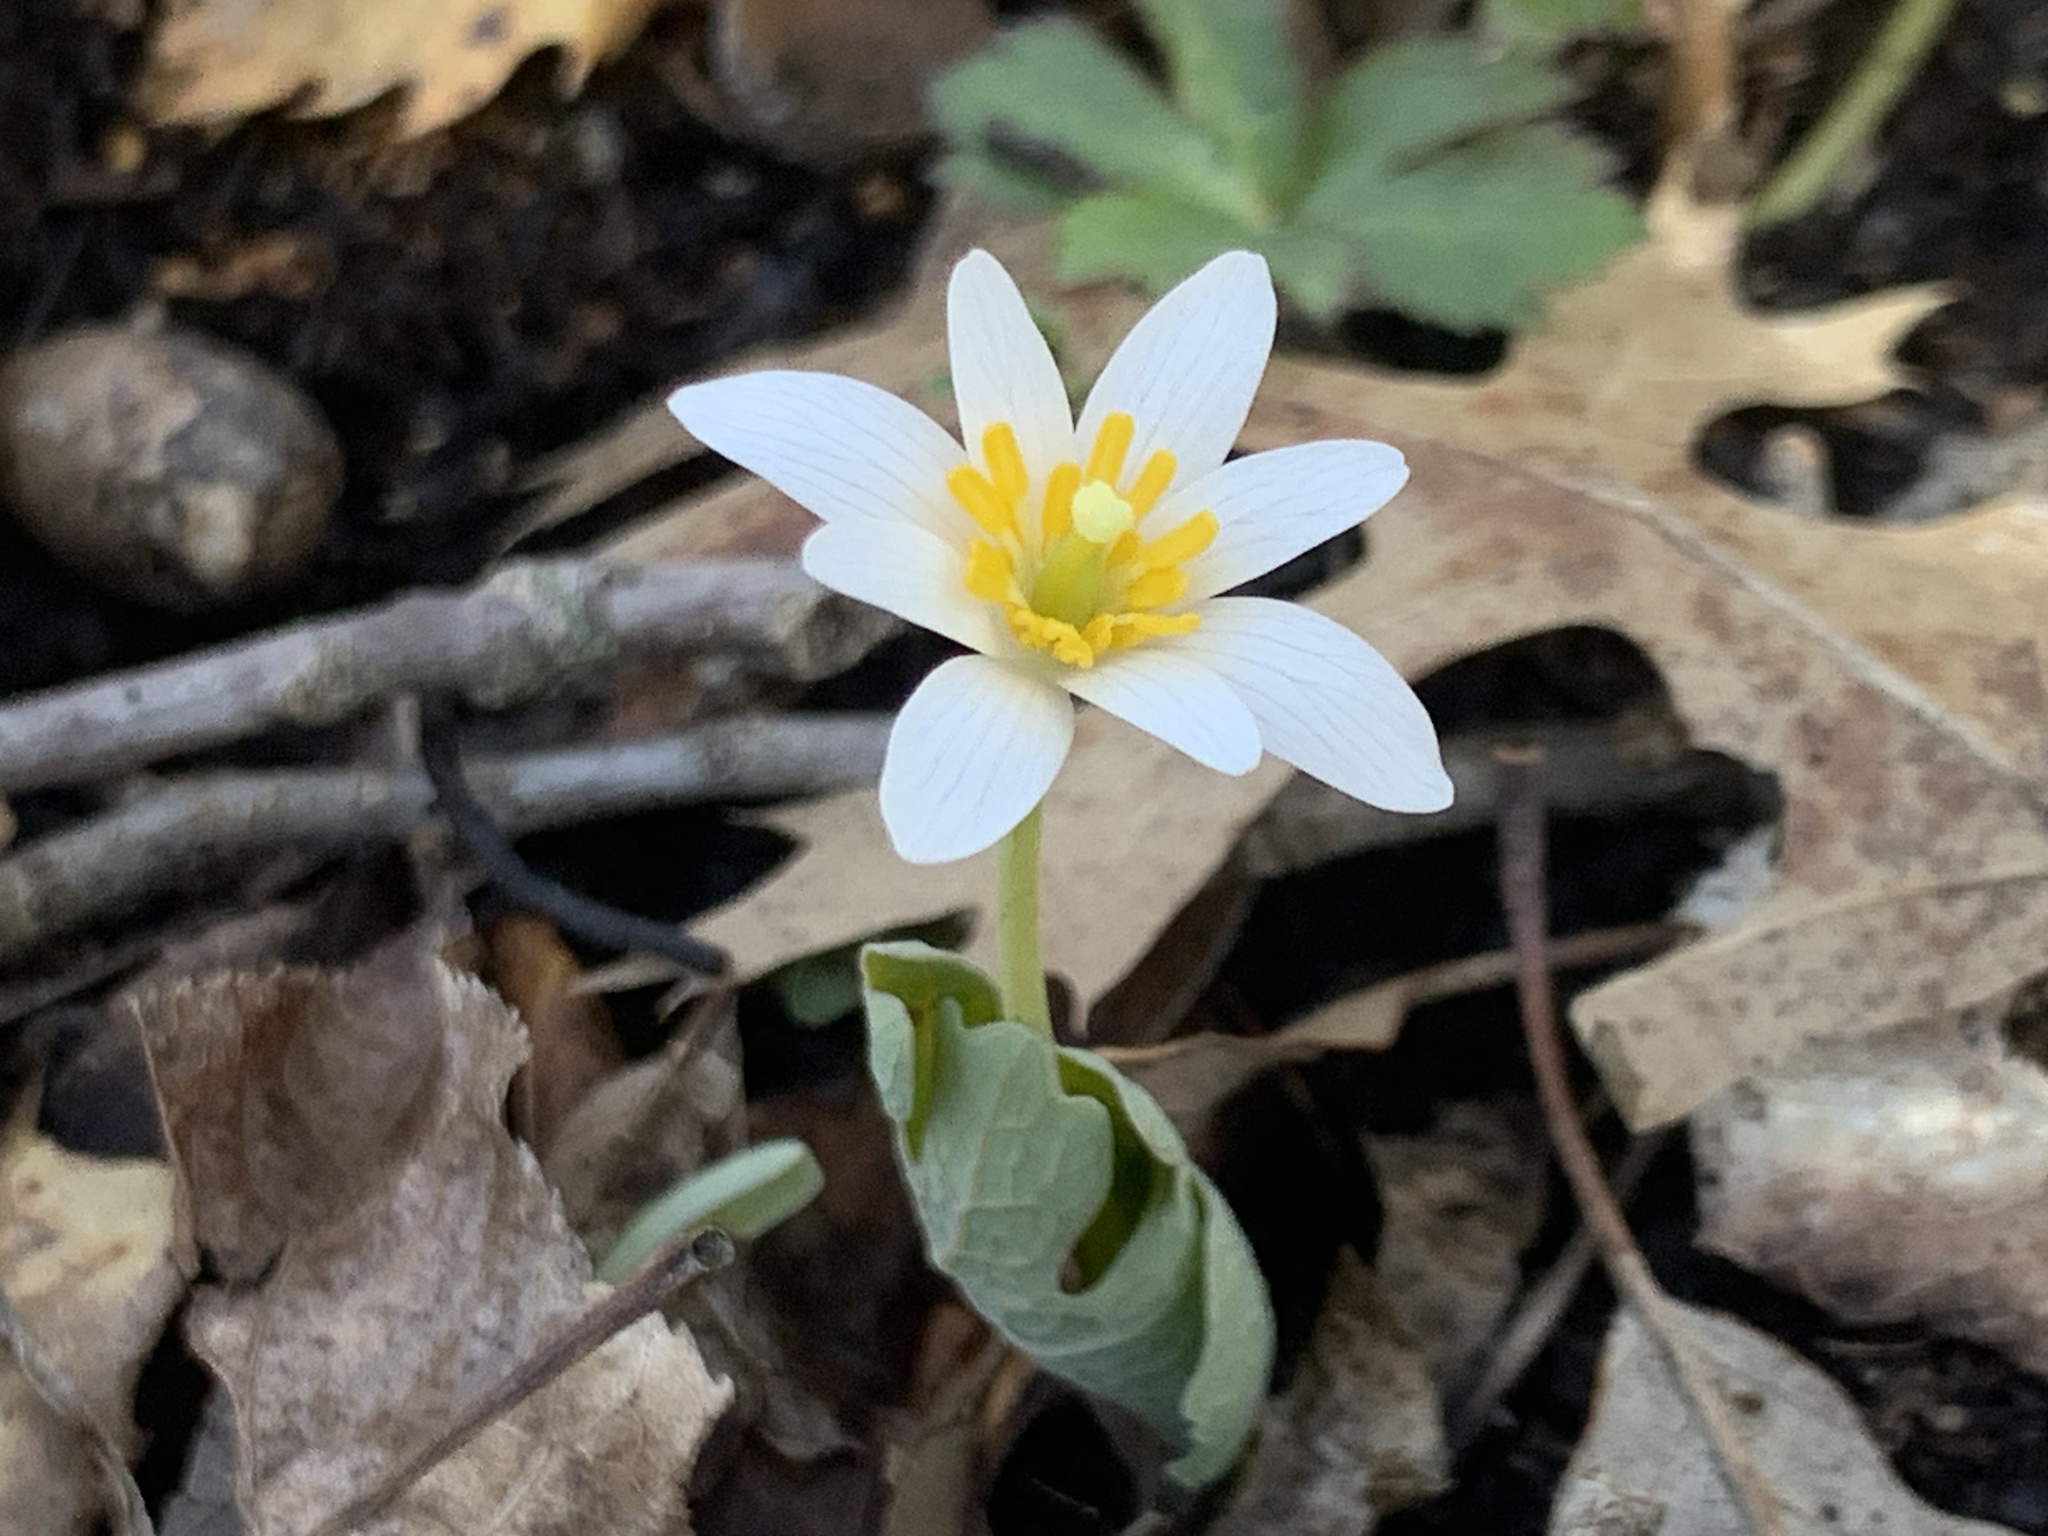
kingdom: Plantae
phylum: Tracheophyta
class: Magnoliopsida
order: Ranunculales
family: Papaveraceae
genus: Sanguinaria
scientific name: Sanguinaria canadensis
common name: Bloodroot
